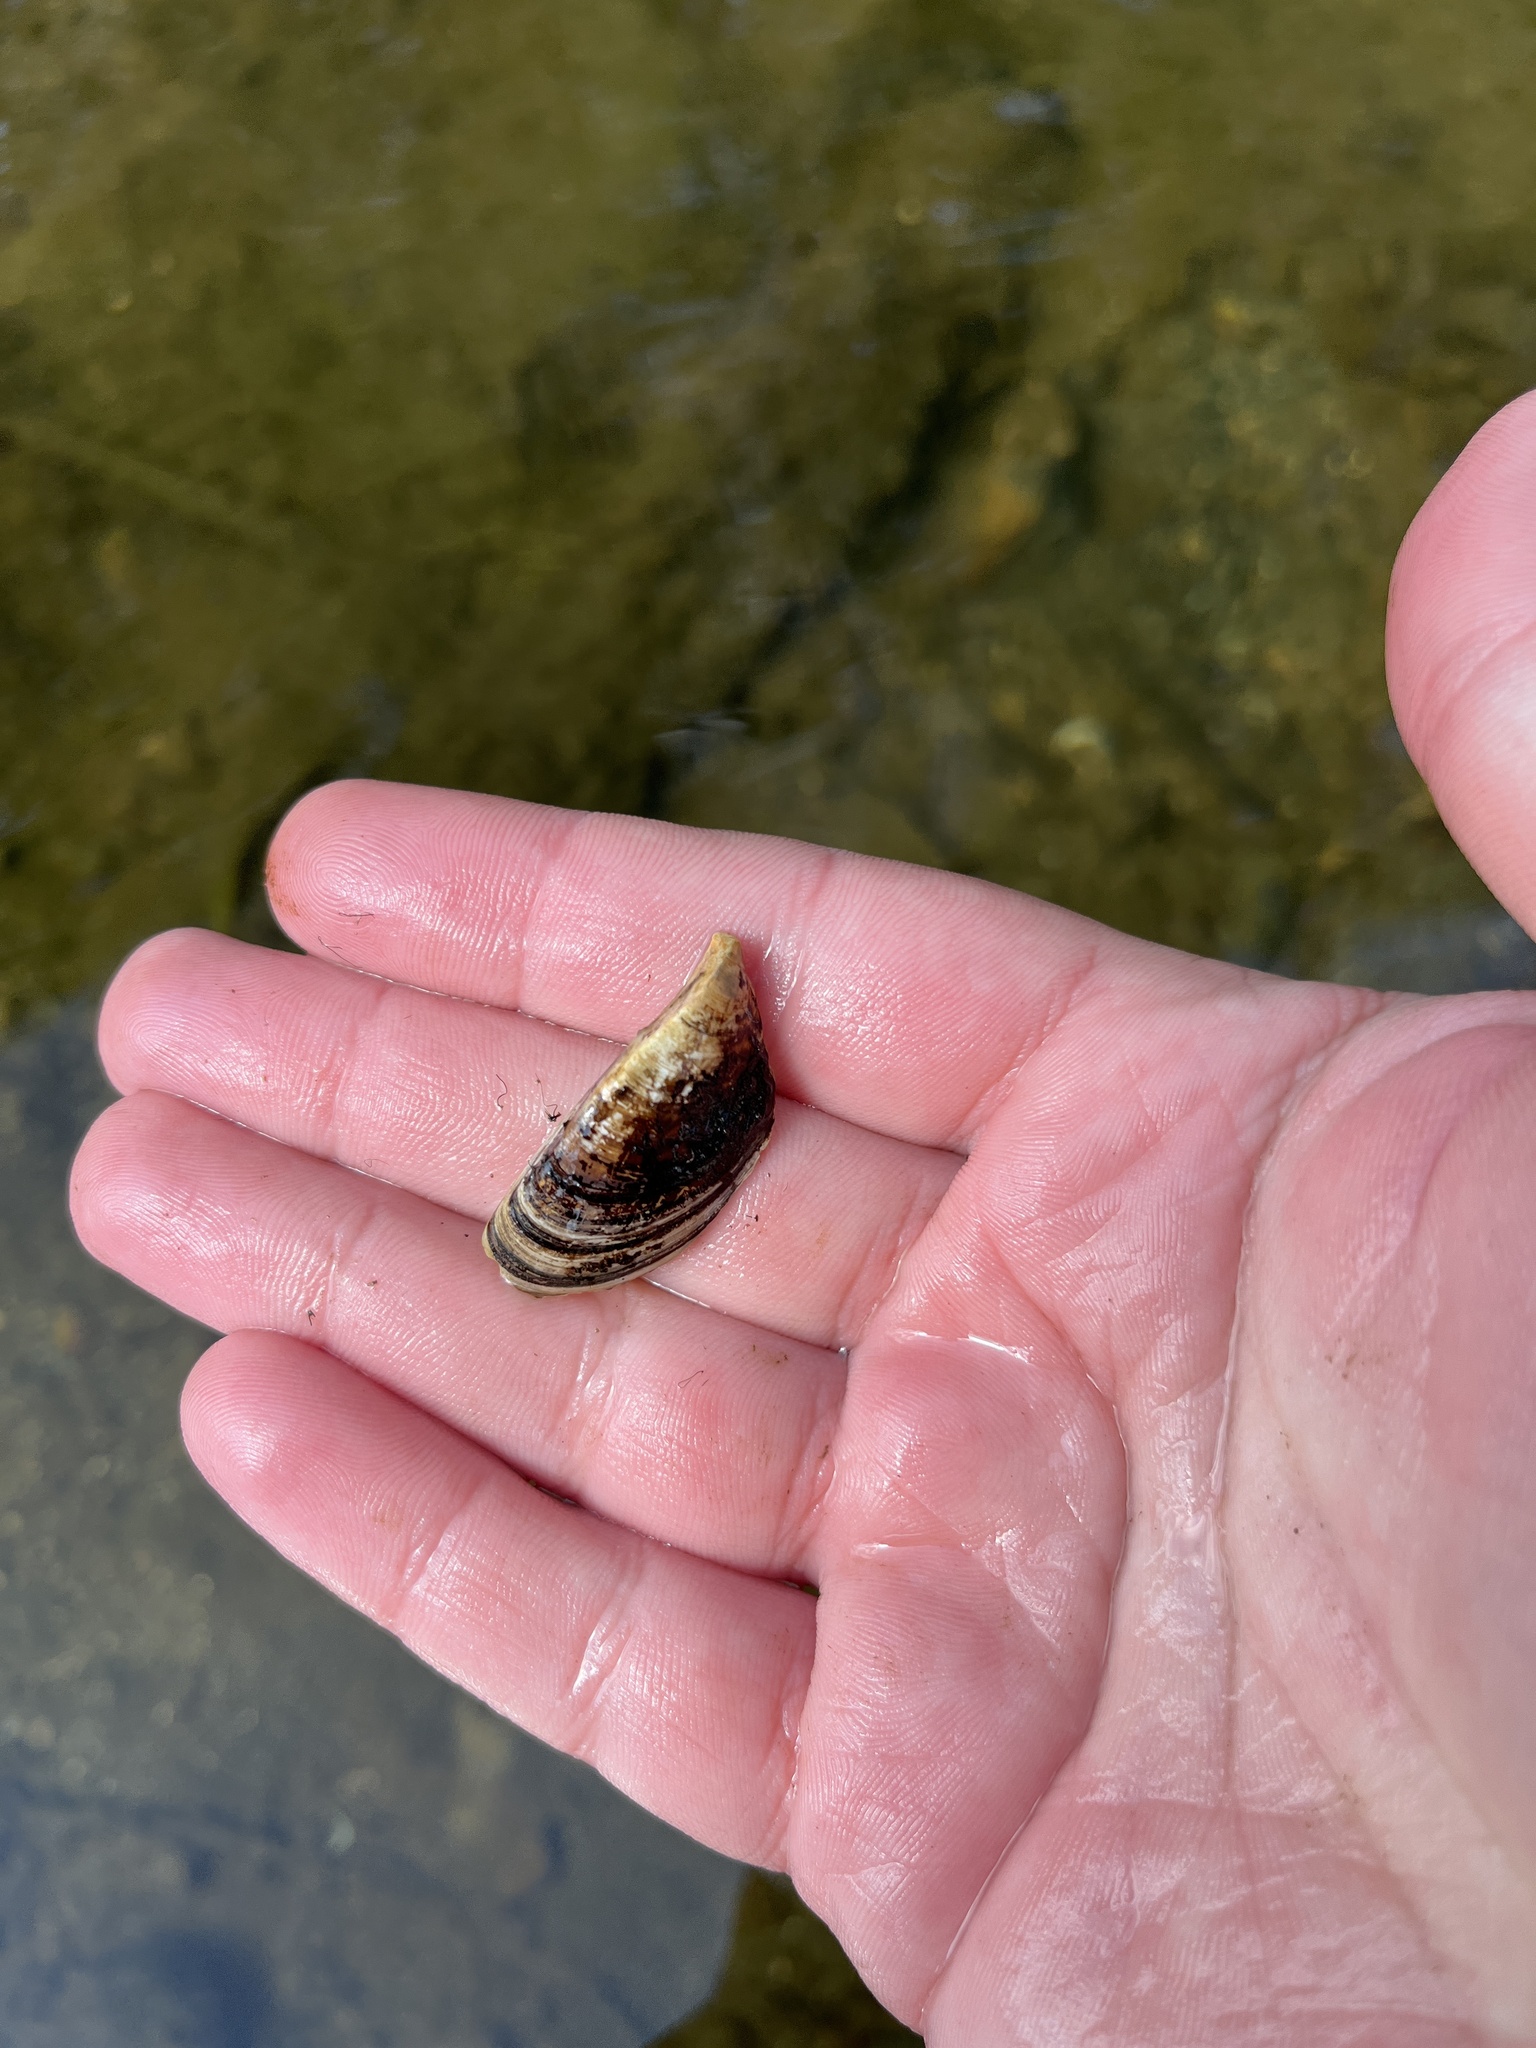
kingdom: Animalia
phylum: Mollusca
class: Bivalvia
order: Myida
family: Dreissenidae
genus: Dreissena
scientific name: Dreissena polymorpha
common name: Zebra mussel
